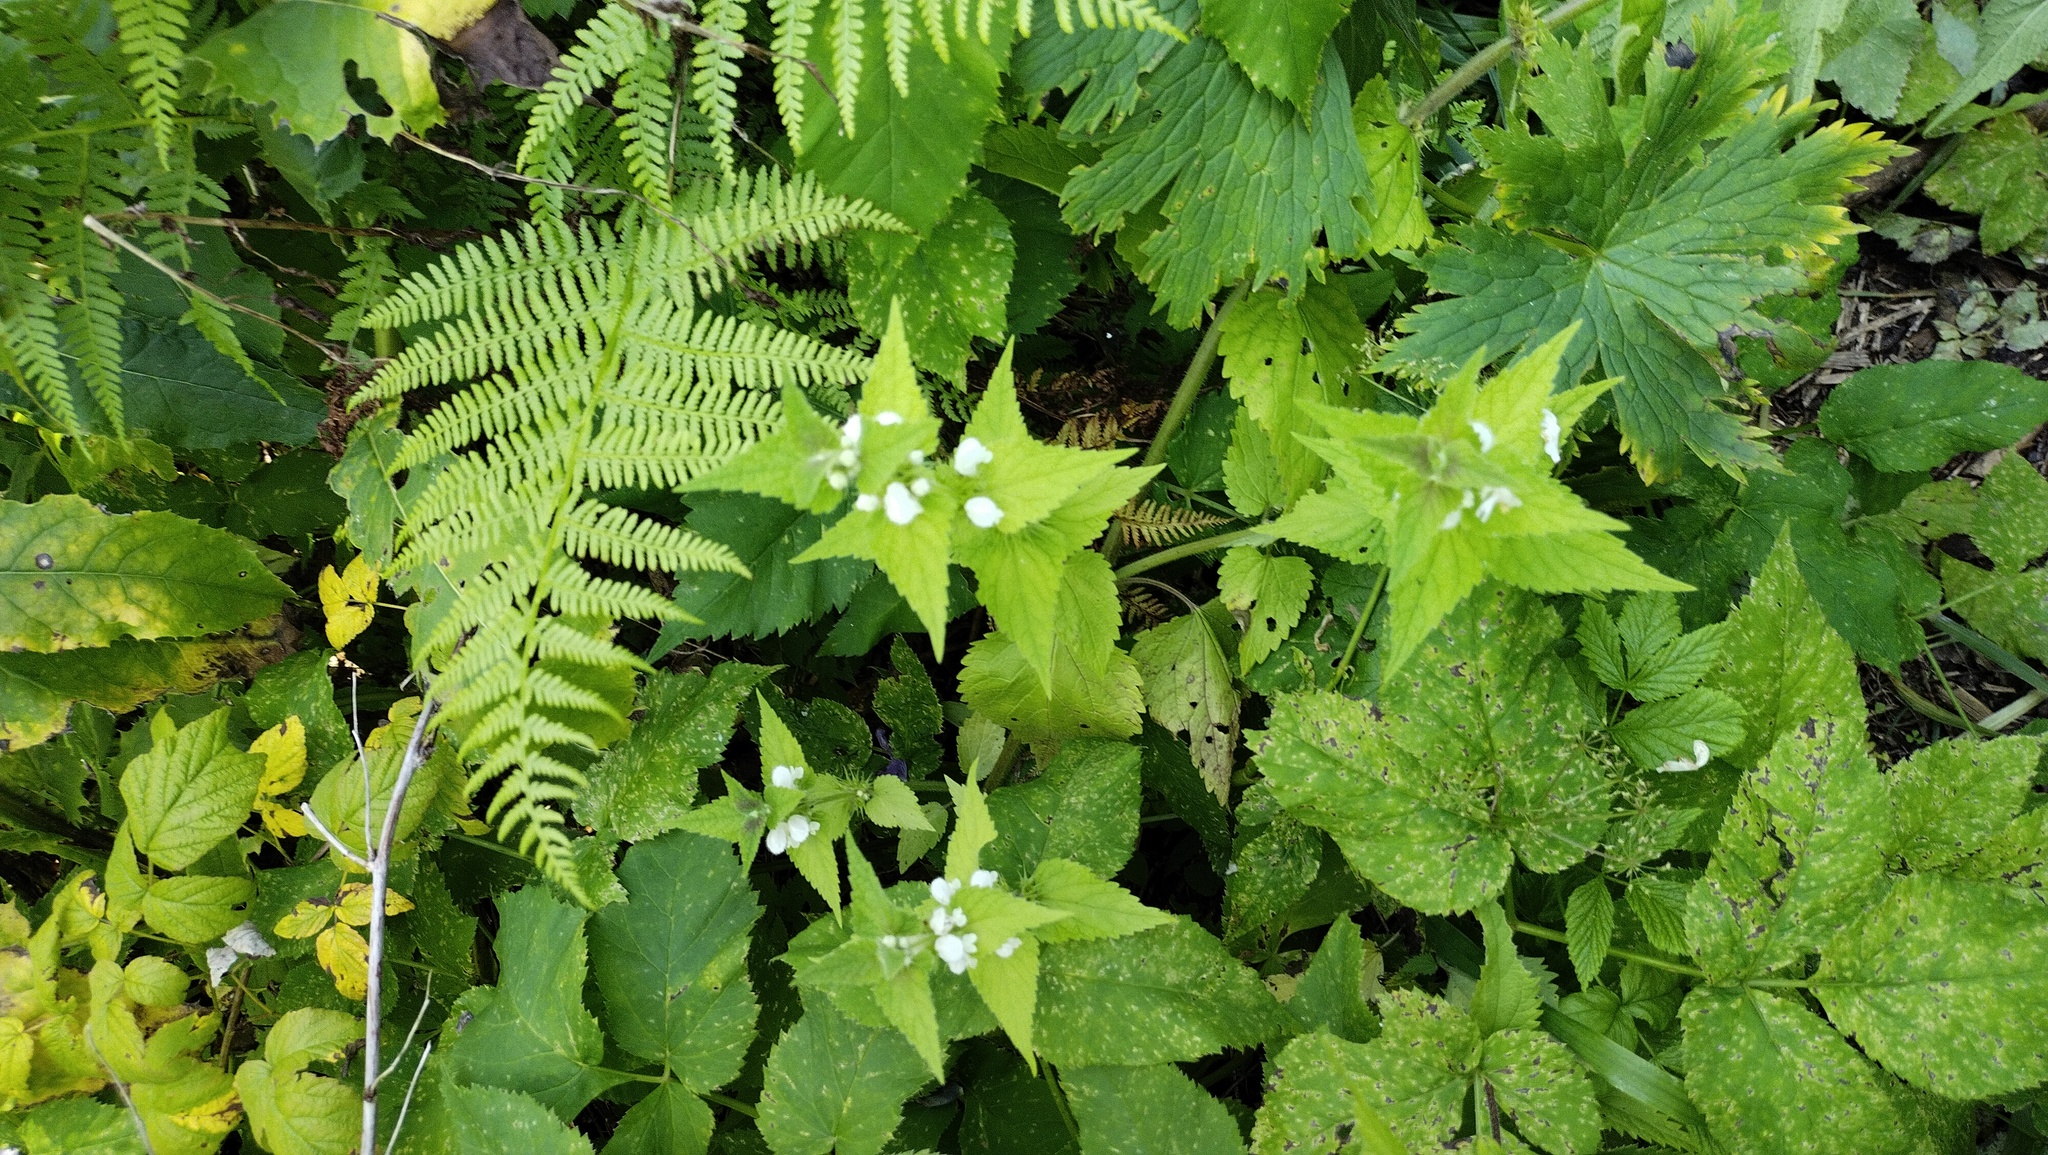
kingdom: Plantae
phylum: Tracheophyta
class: Magnoliopsida
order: Lamiales
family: Lamiaceae
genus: Lamium
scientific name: Lamium album
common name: White dead-nettle
